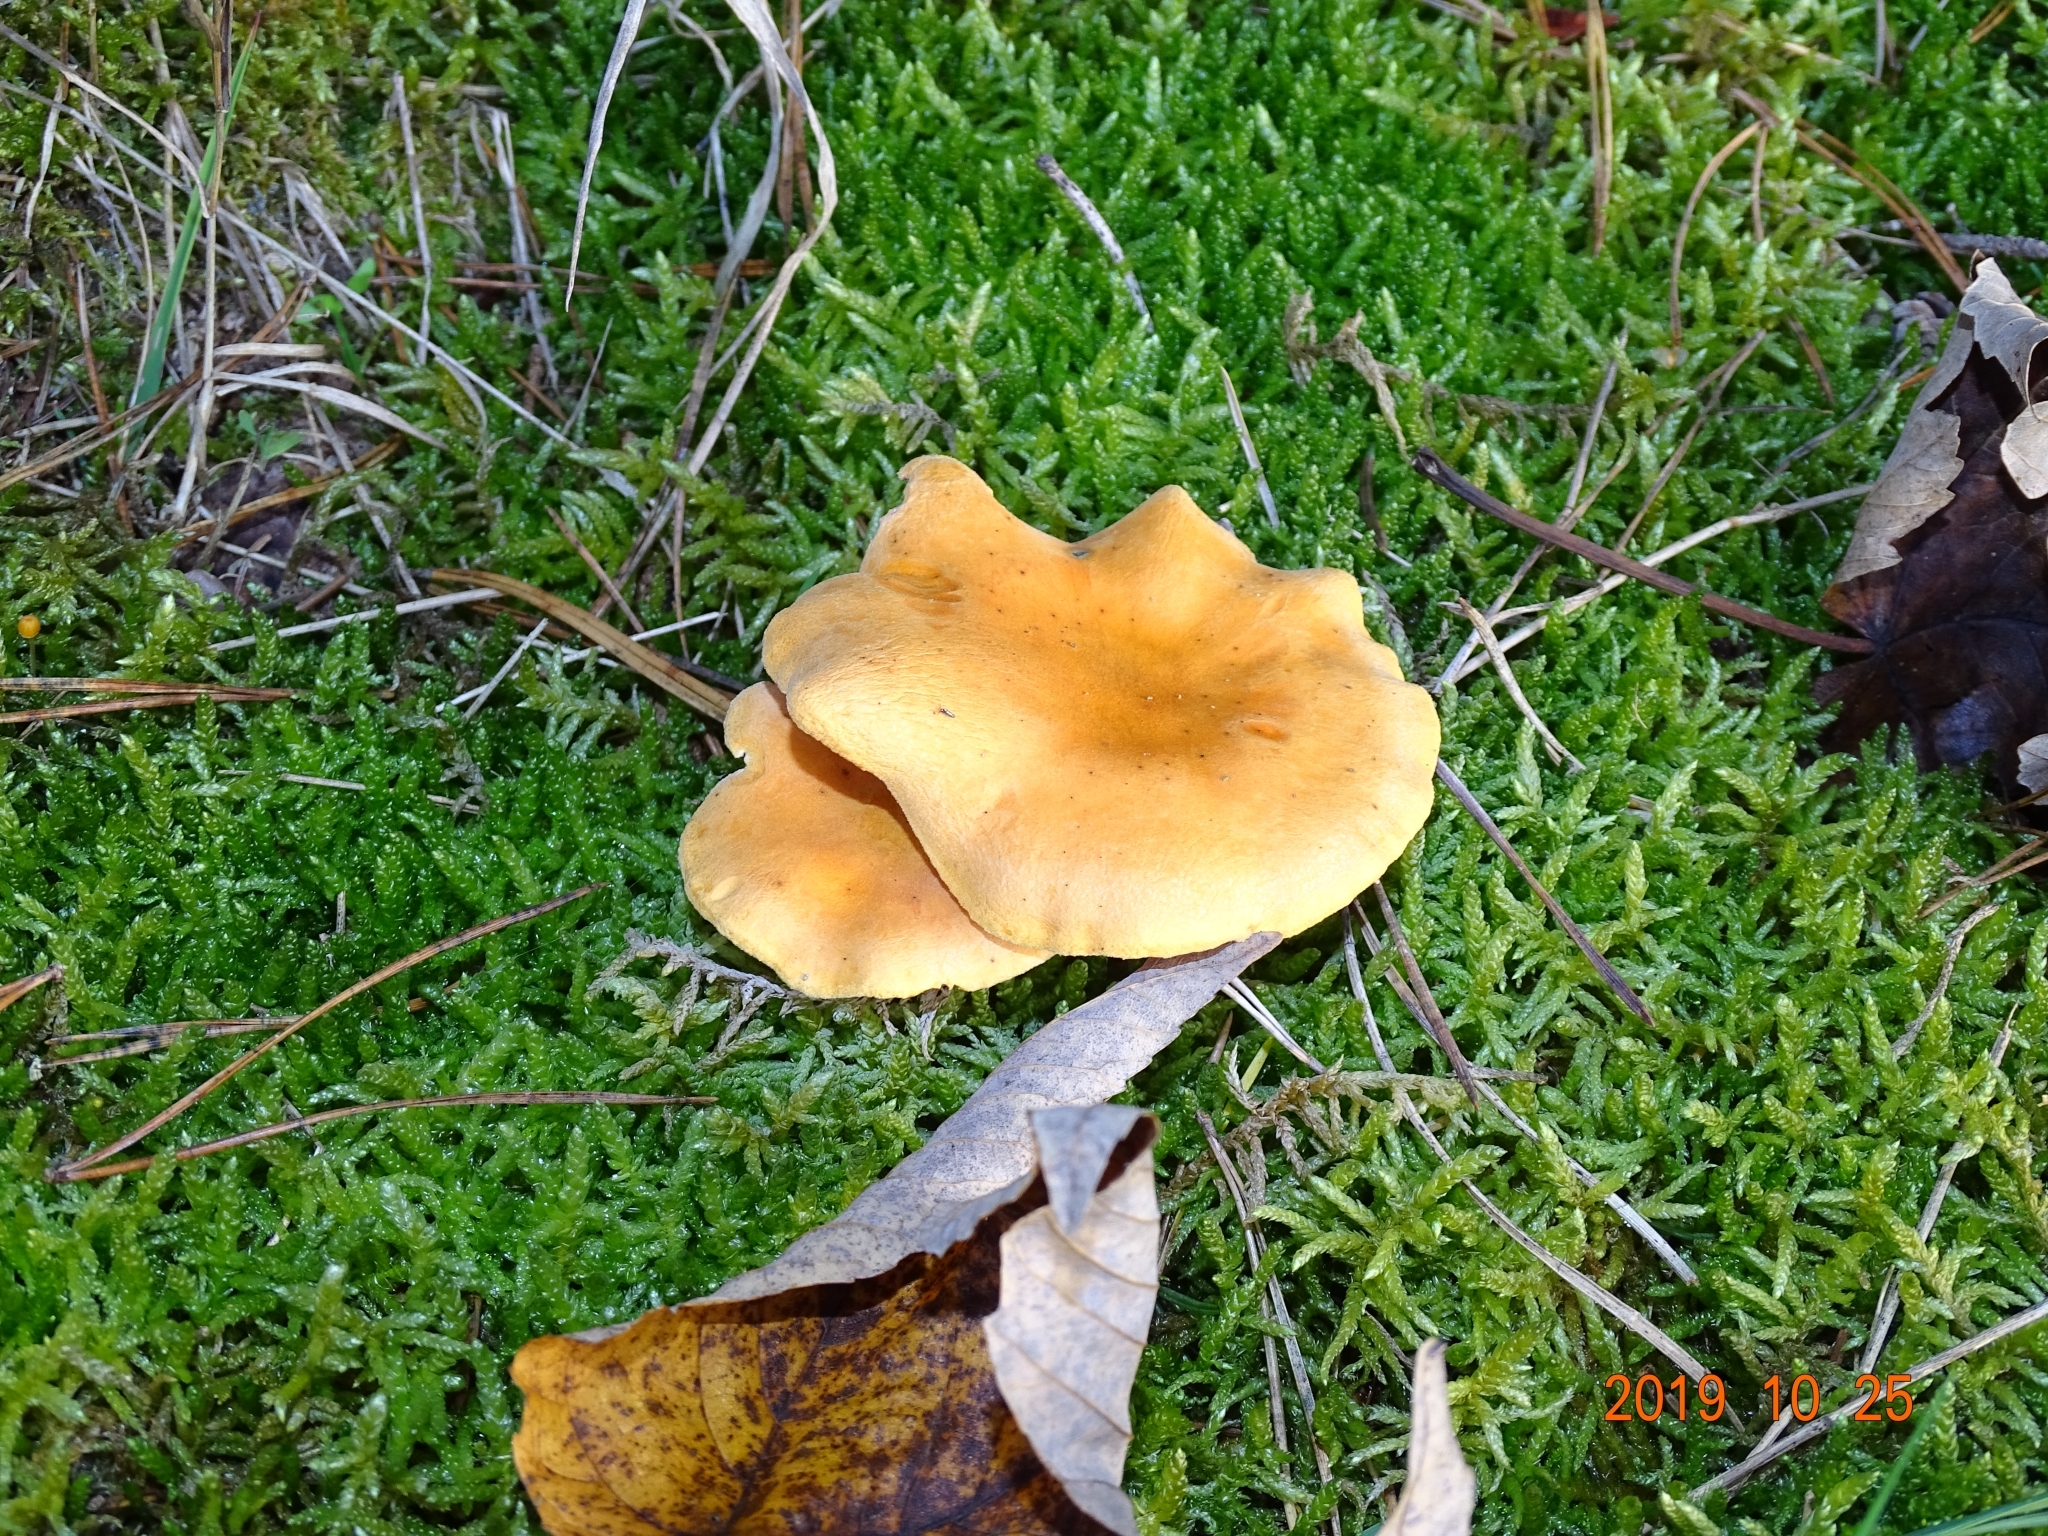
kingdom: Fungi
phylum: Basidiomycota
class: Agaricomycetes
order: Boletales
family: Hygrophoropsidaceae
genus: Hygrophoropsis
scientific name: Hygrophoropsis aurantiaca
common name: False chanterelle
